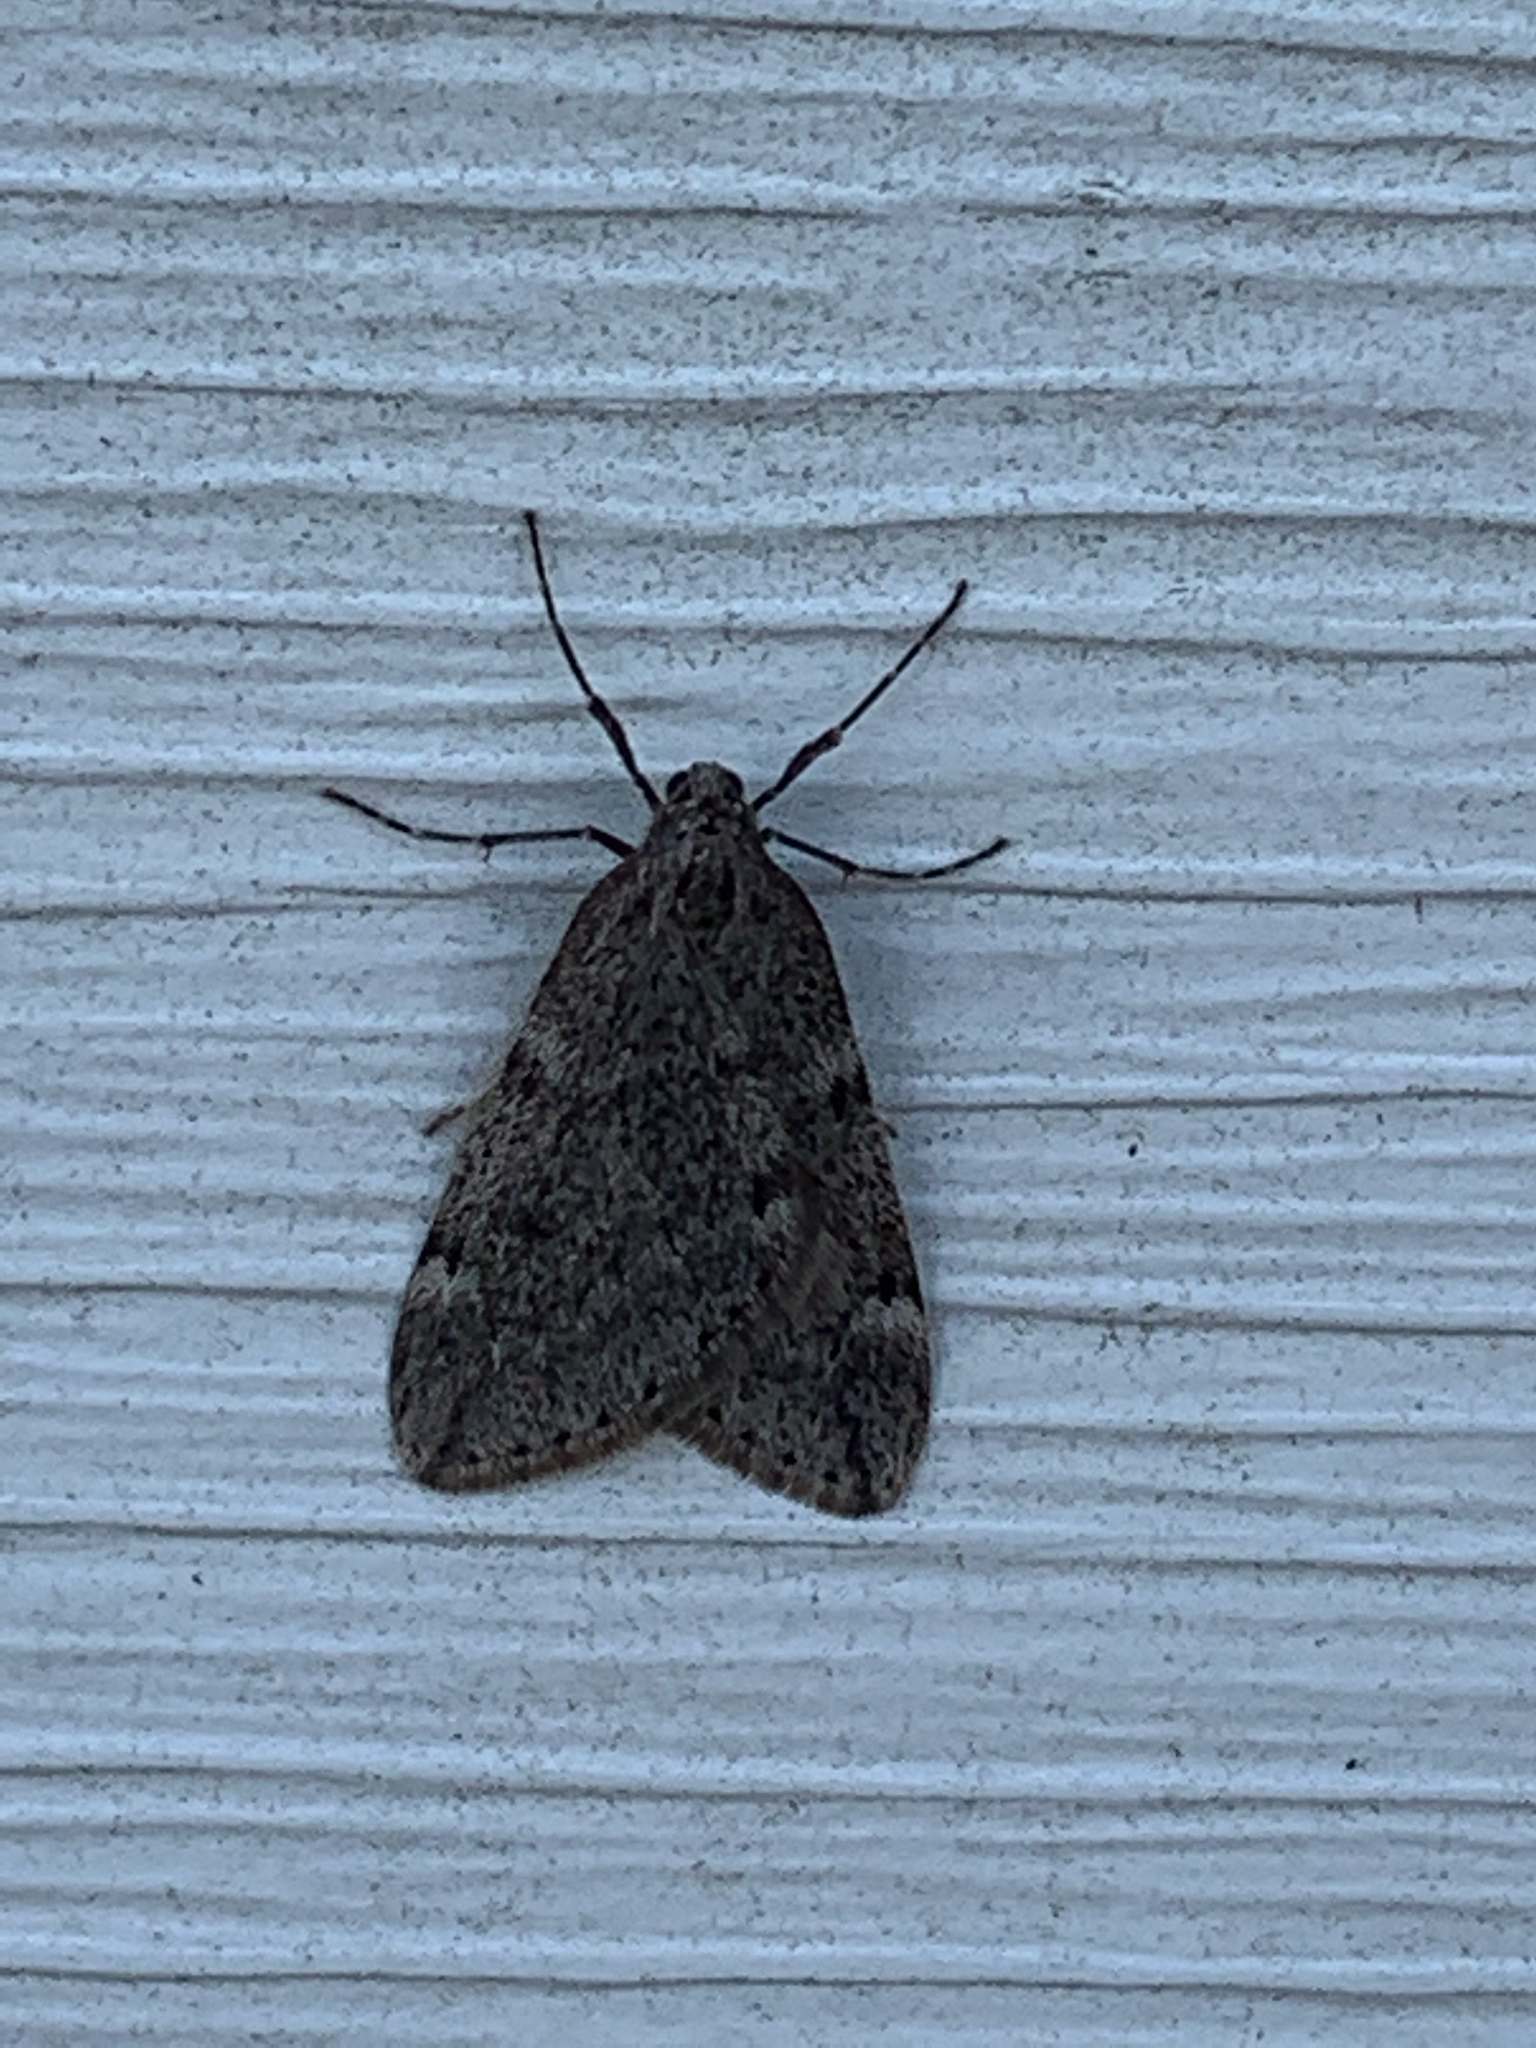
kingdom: Animalia
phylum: Arthropoda
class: Insecta
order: Lepidoptera
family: Geometridae
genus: Alsophila
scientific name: Alsophila pometaria
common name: Fall cankerworm
